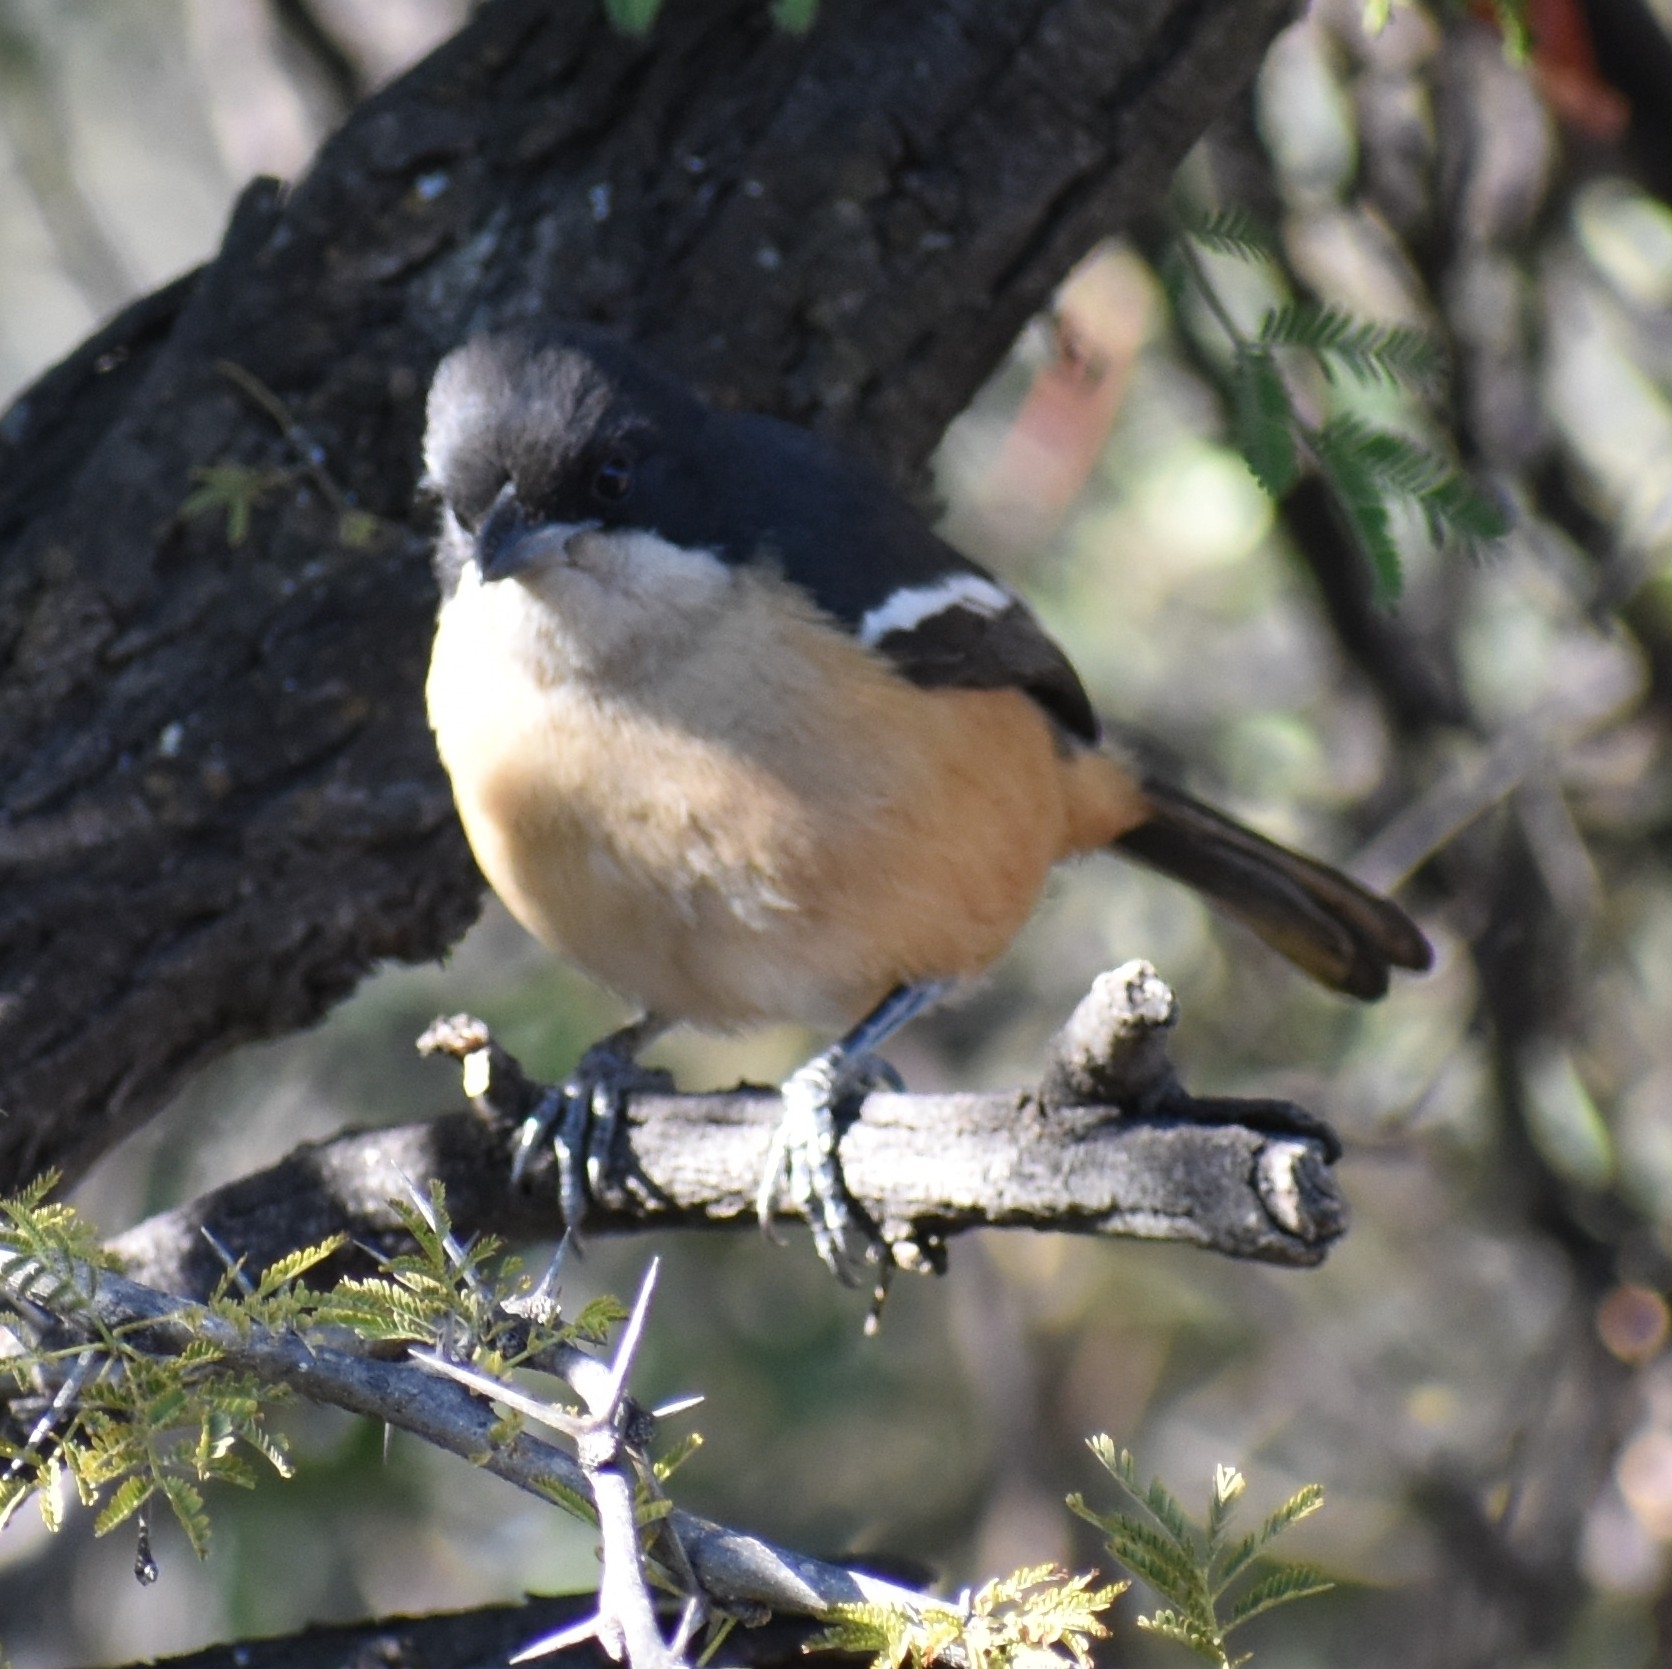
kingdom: Animalia
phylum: Chordata
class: Aves
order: Passeriformes
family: Malaconotidae
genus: Laniarius
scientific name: Laniarius ferrugineus
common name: Southern boubou
